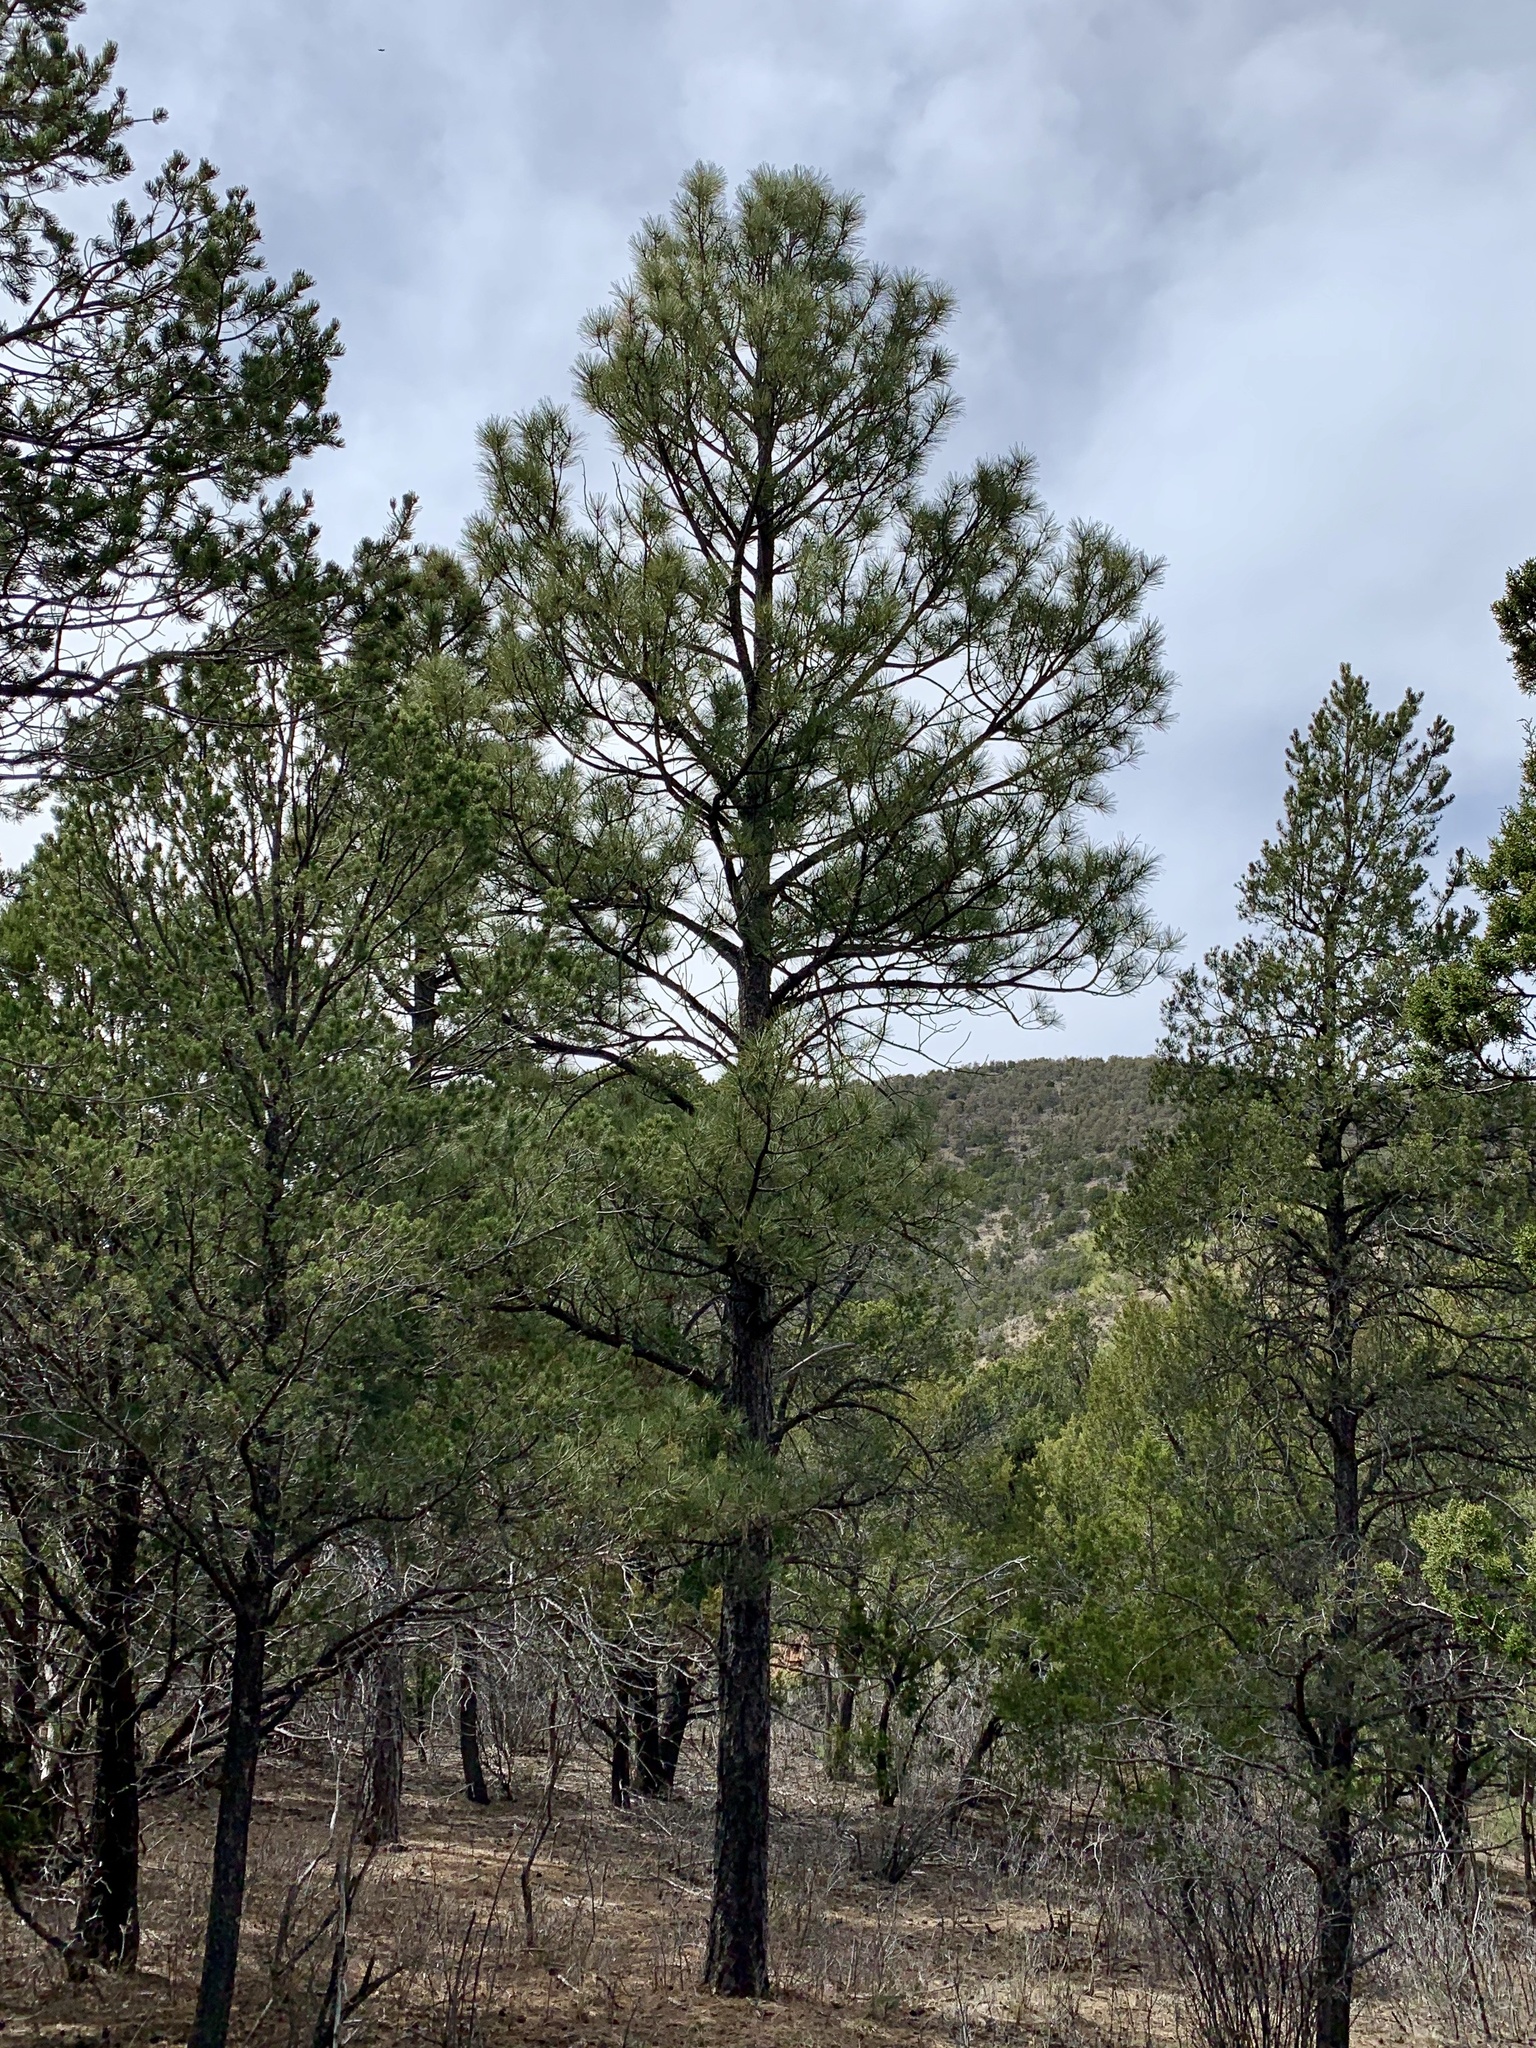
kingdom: Plantae
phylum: Tracheophyta
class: Pinopsida
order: Pinales
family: Pinaceae
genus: Pinus
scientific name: Pinus ponderosa
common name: Western yellow-pine
